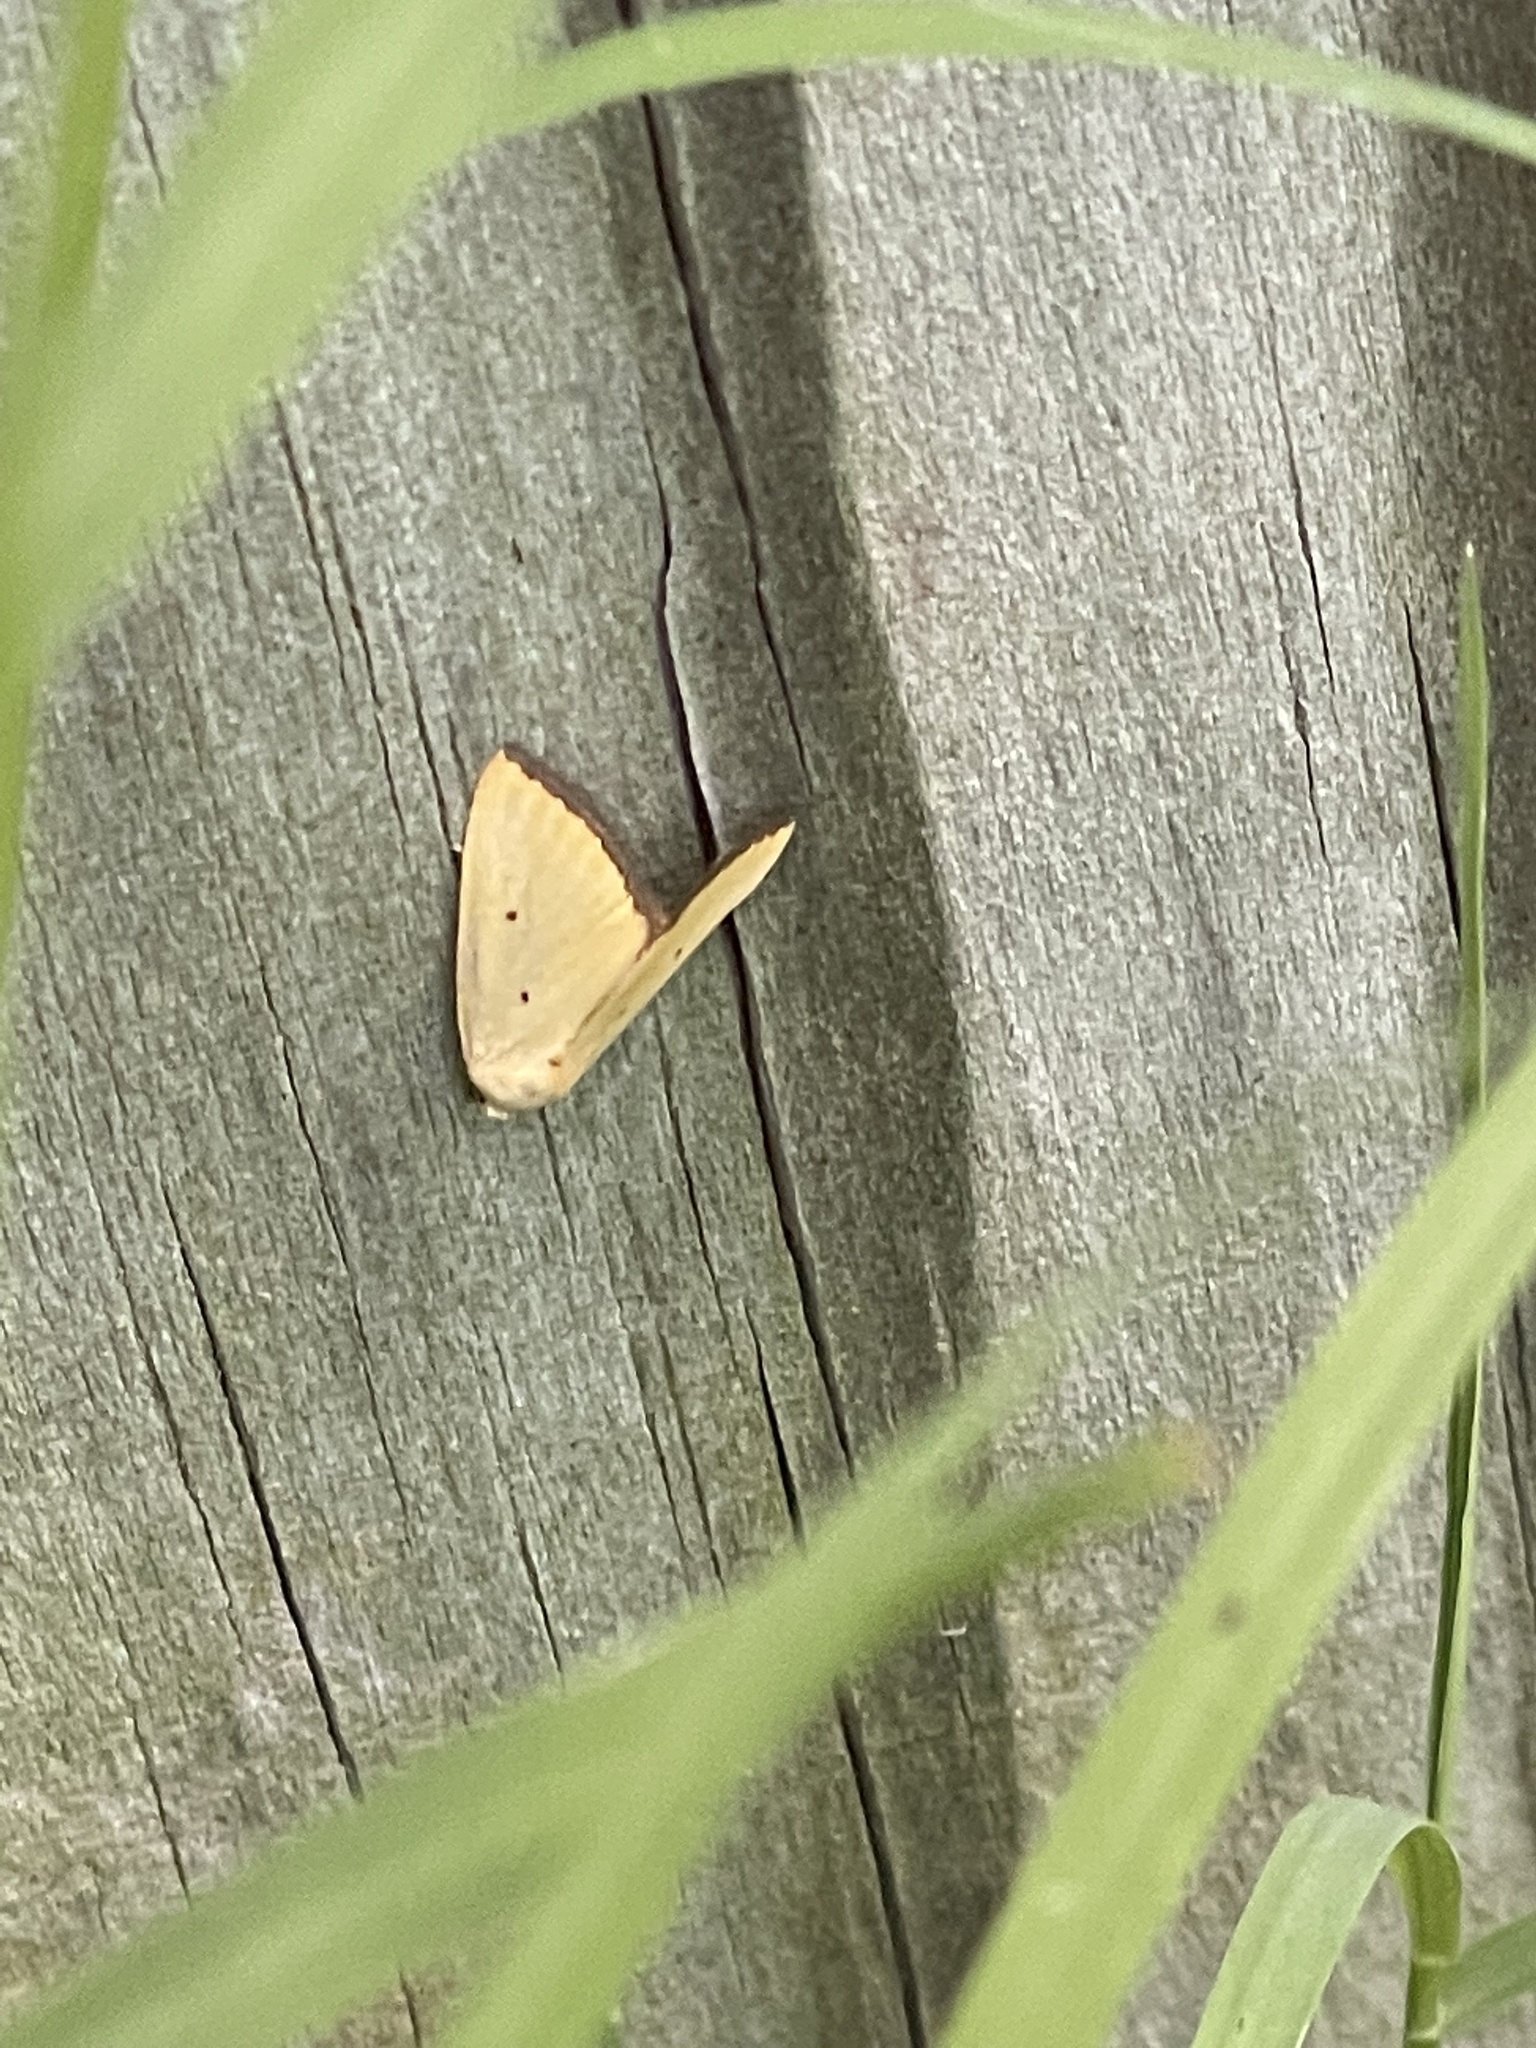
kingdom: Animalia
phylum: Arthropoda
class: Insecta
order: Lepidoptera
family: Noctuidae
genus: Marimatha
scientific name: Marimatha nigrofimbria
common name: Black-bordered lemon moth
